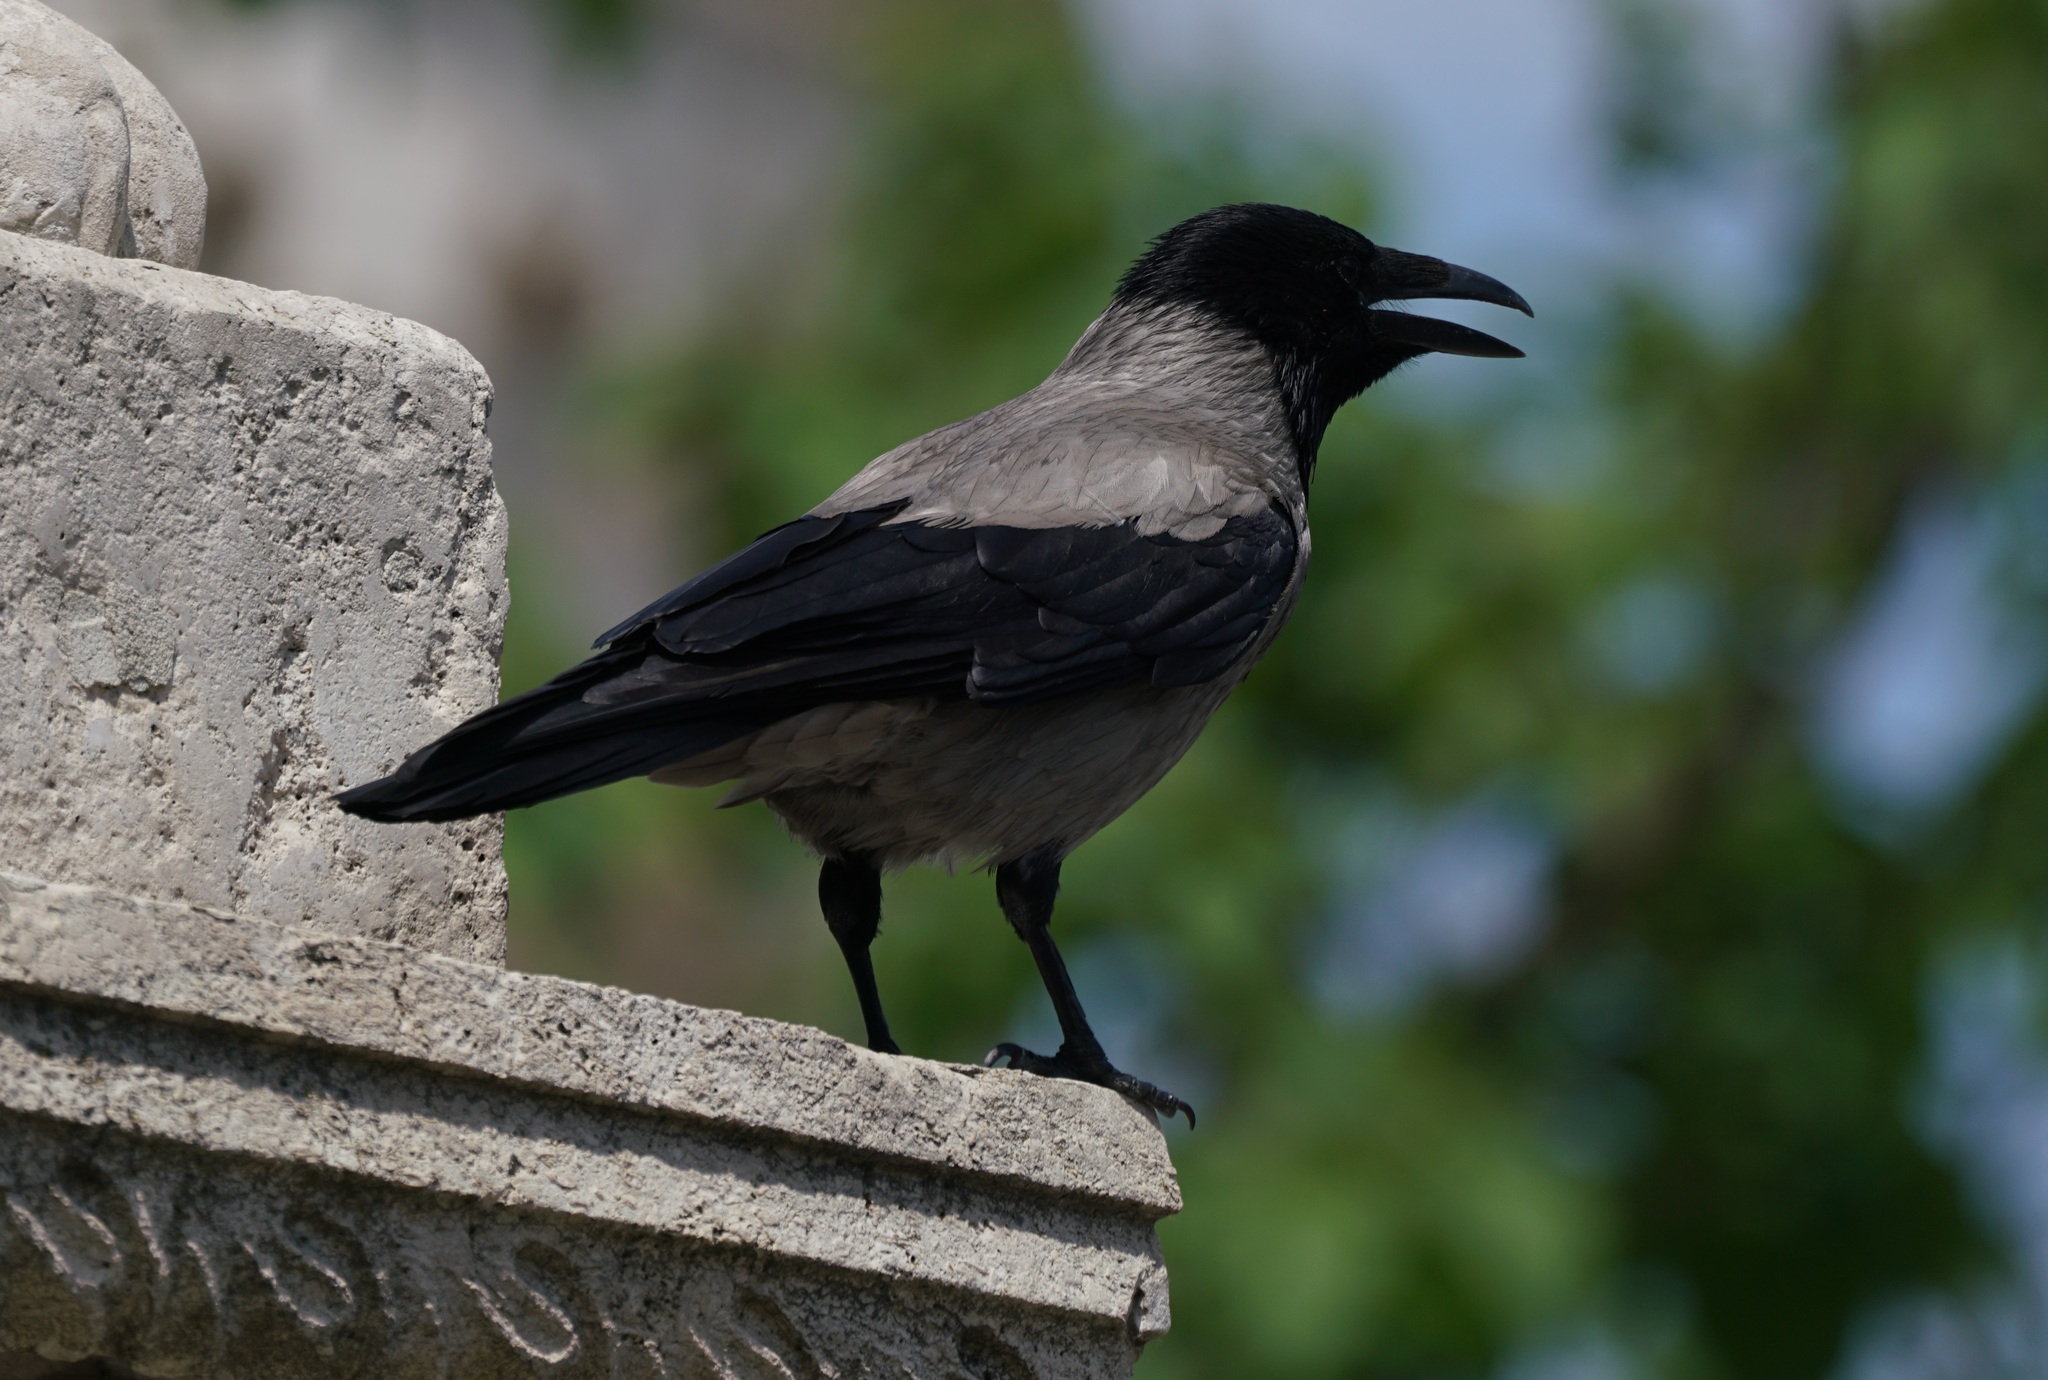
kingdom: Animalia
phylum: Chordata
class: Aves
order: Passeriformes
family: Corvidae
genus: Corvus
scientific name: Corvus cornix
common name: Hooded crow
